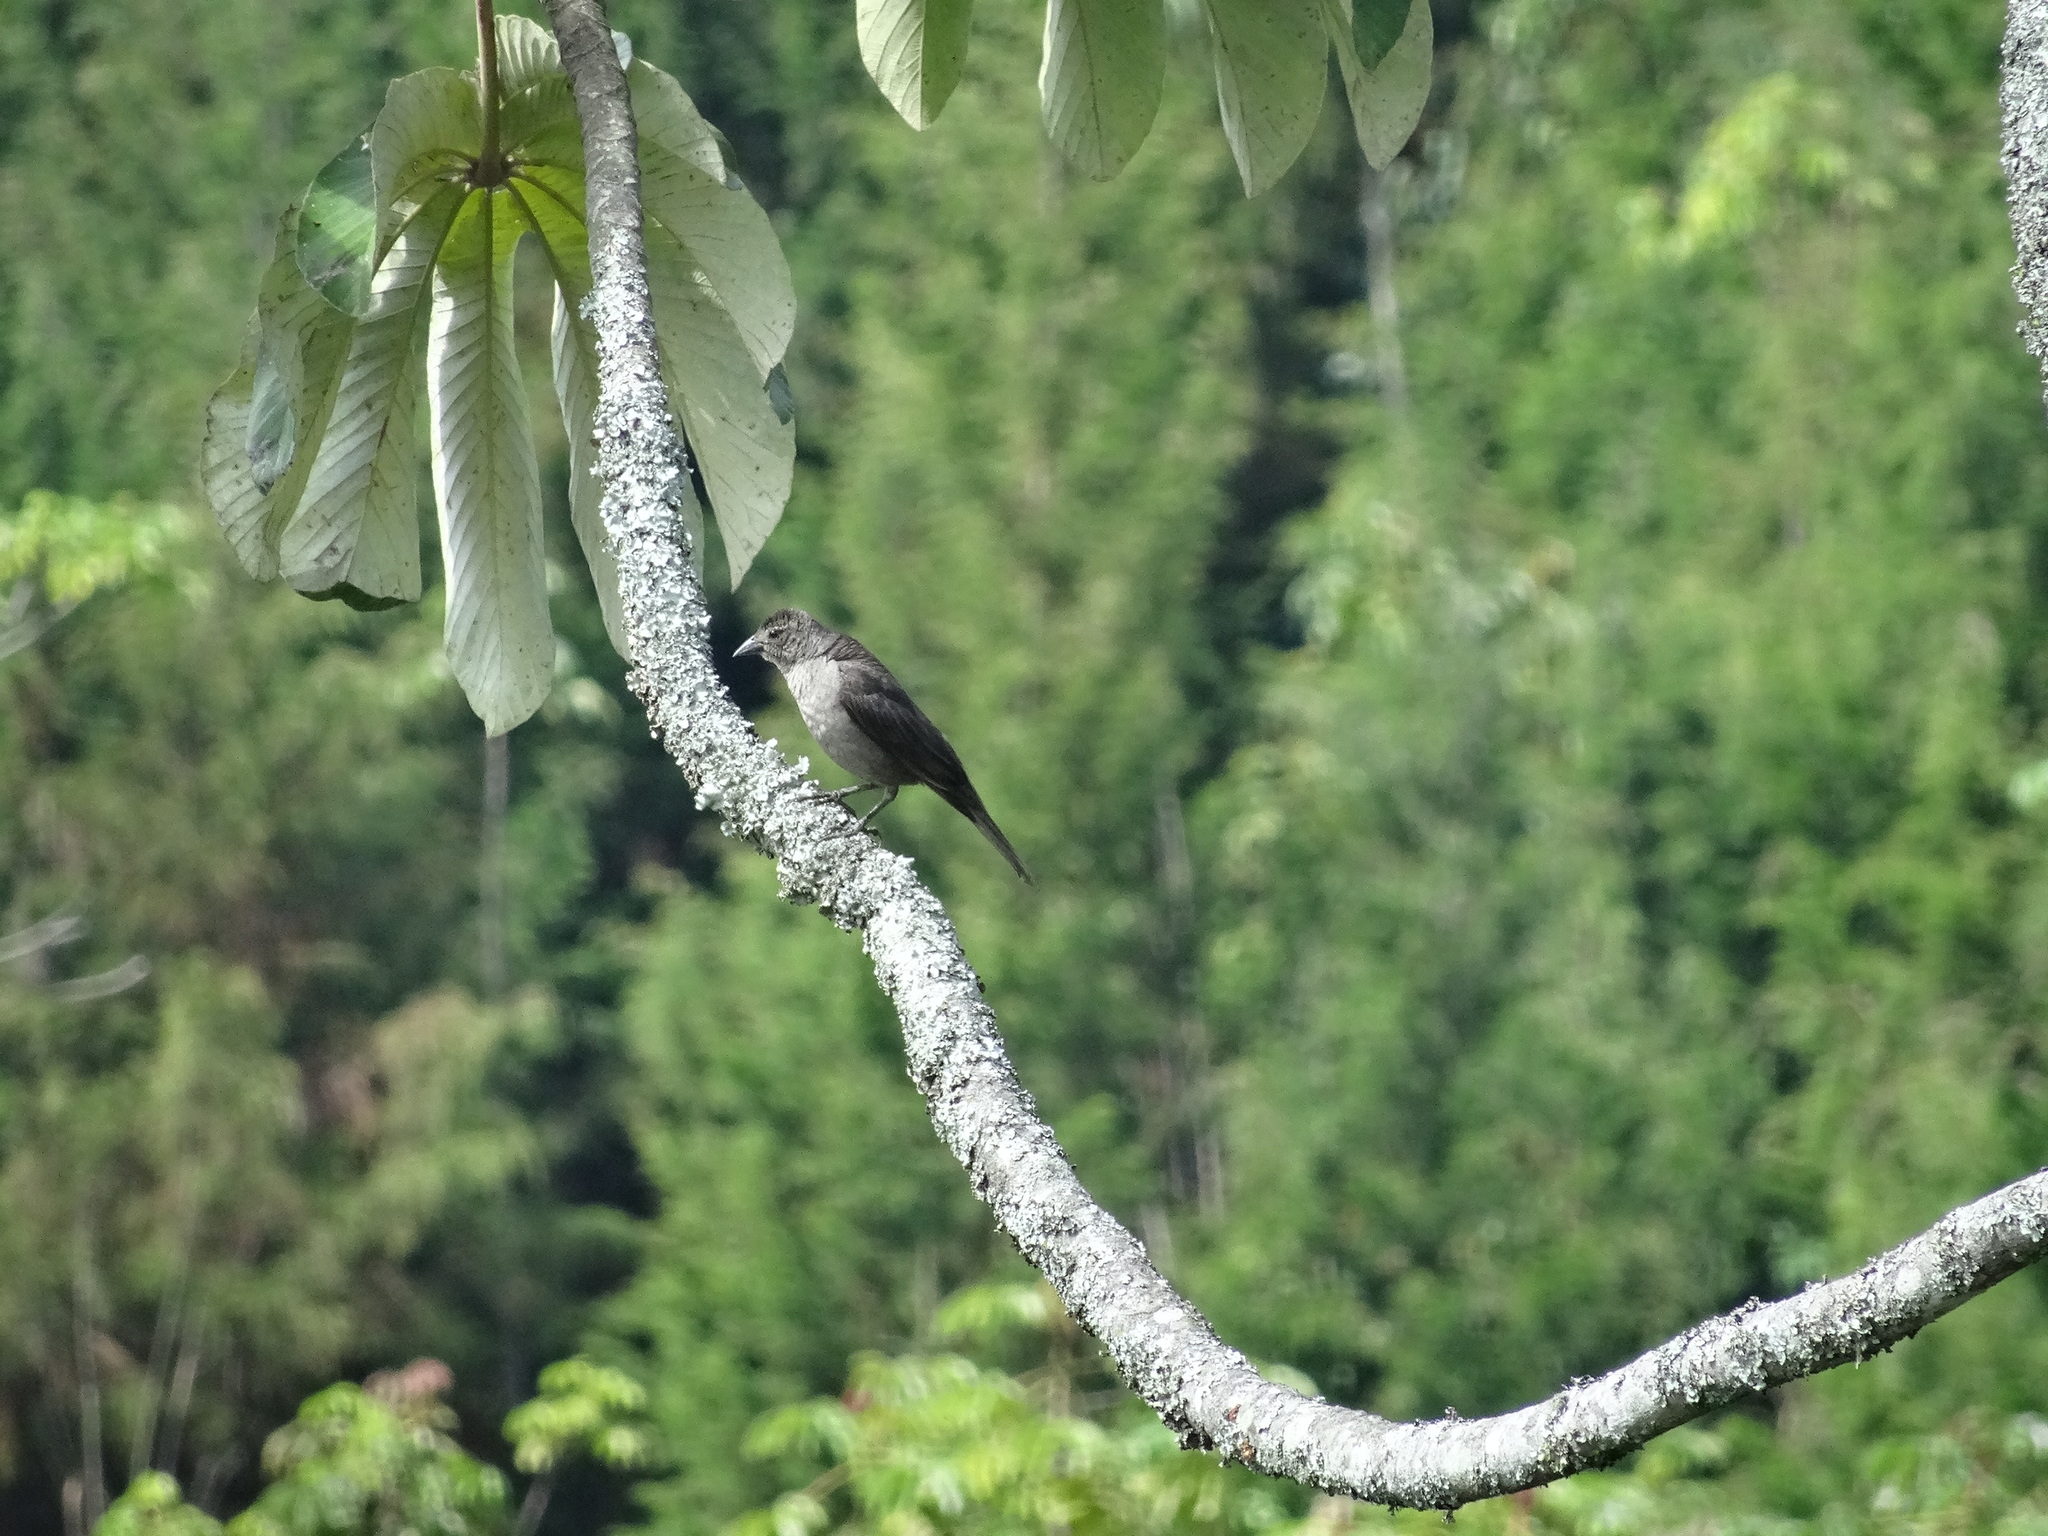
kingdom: Animalia
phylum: Chordata
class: Aves
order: Passeriformes
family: Icteridae
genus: Molothrus
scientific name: Molothrus bonariensis
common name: Shiny cowbird
